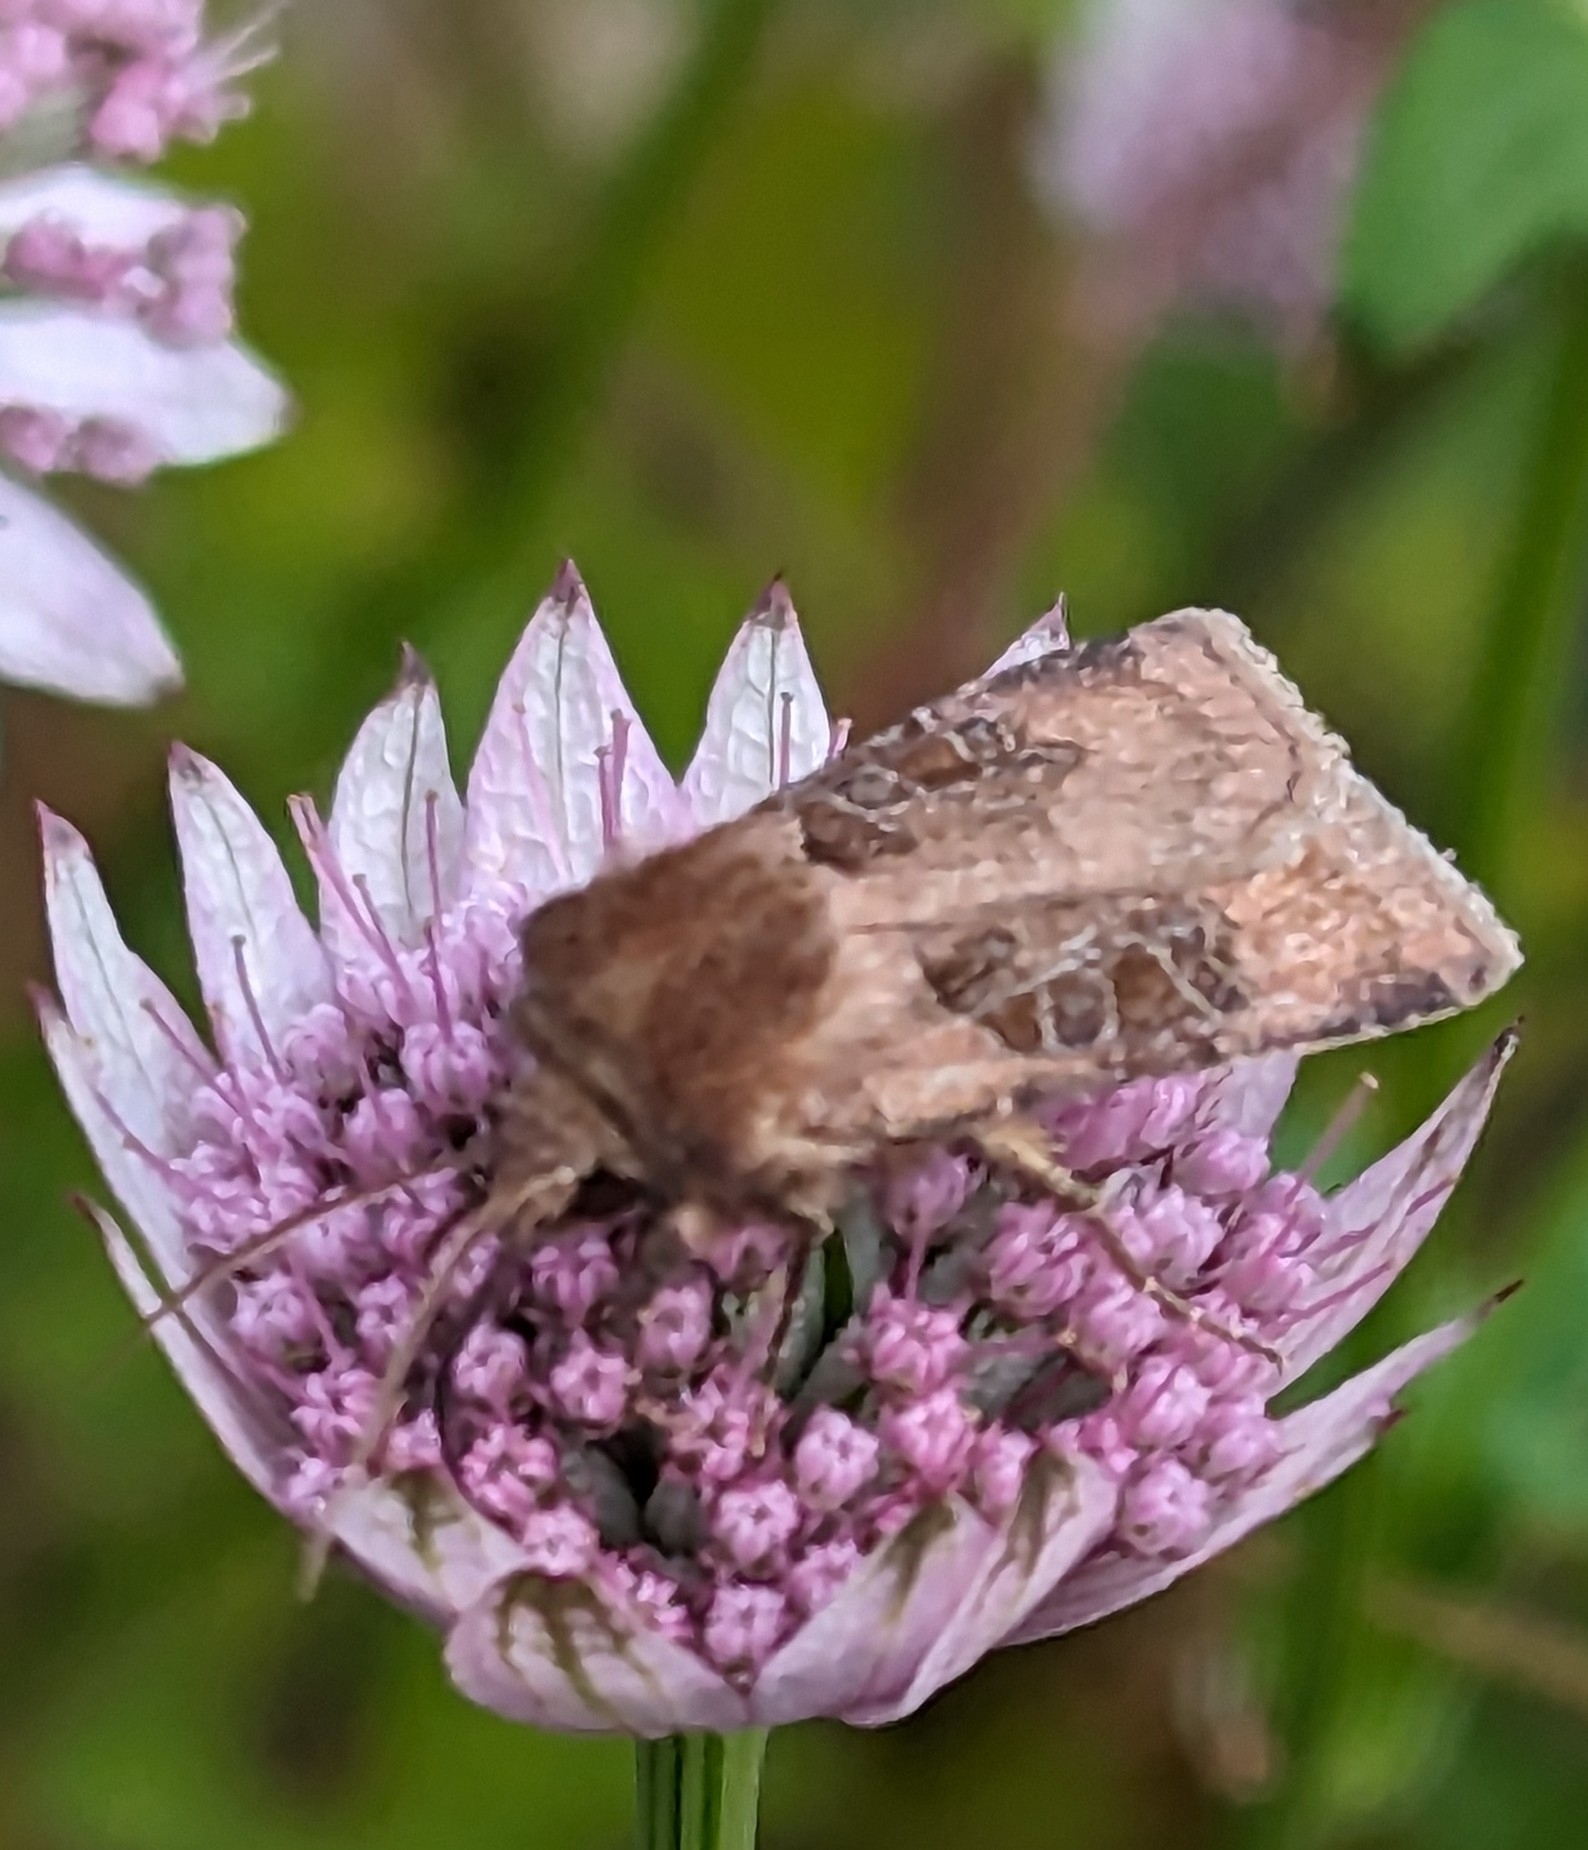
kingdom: Animalia
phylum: Arthropoda
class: Insecta
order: Lepidoptera
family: Noctuidae
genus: Chersotis
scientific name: Chersotis cuprea
